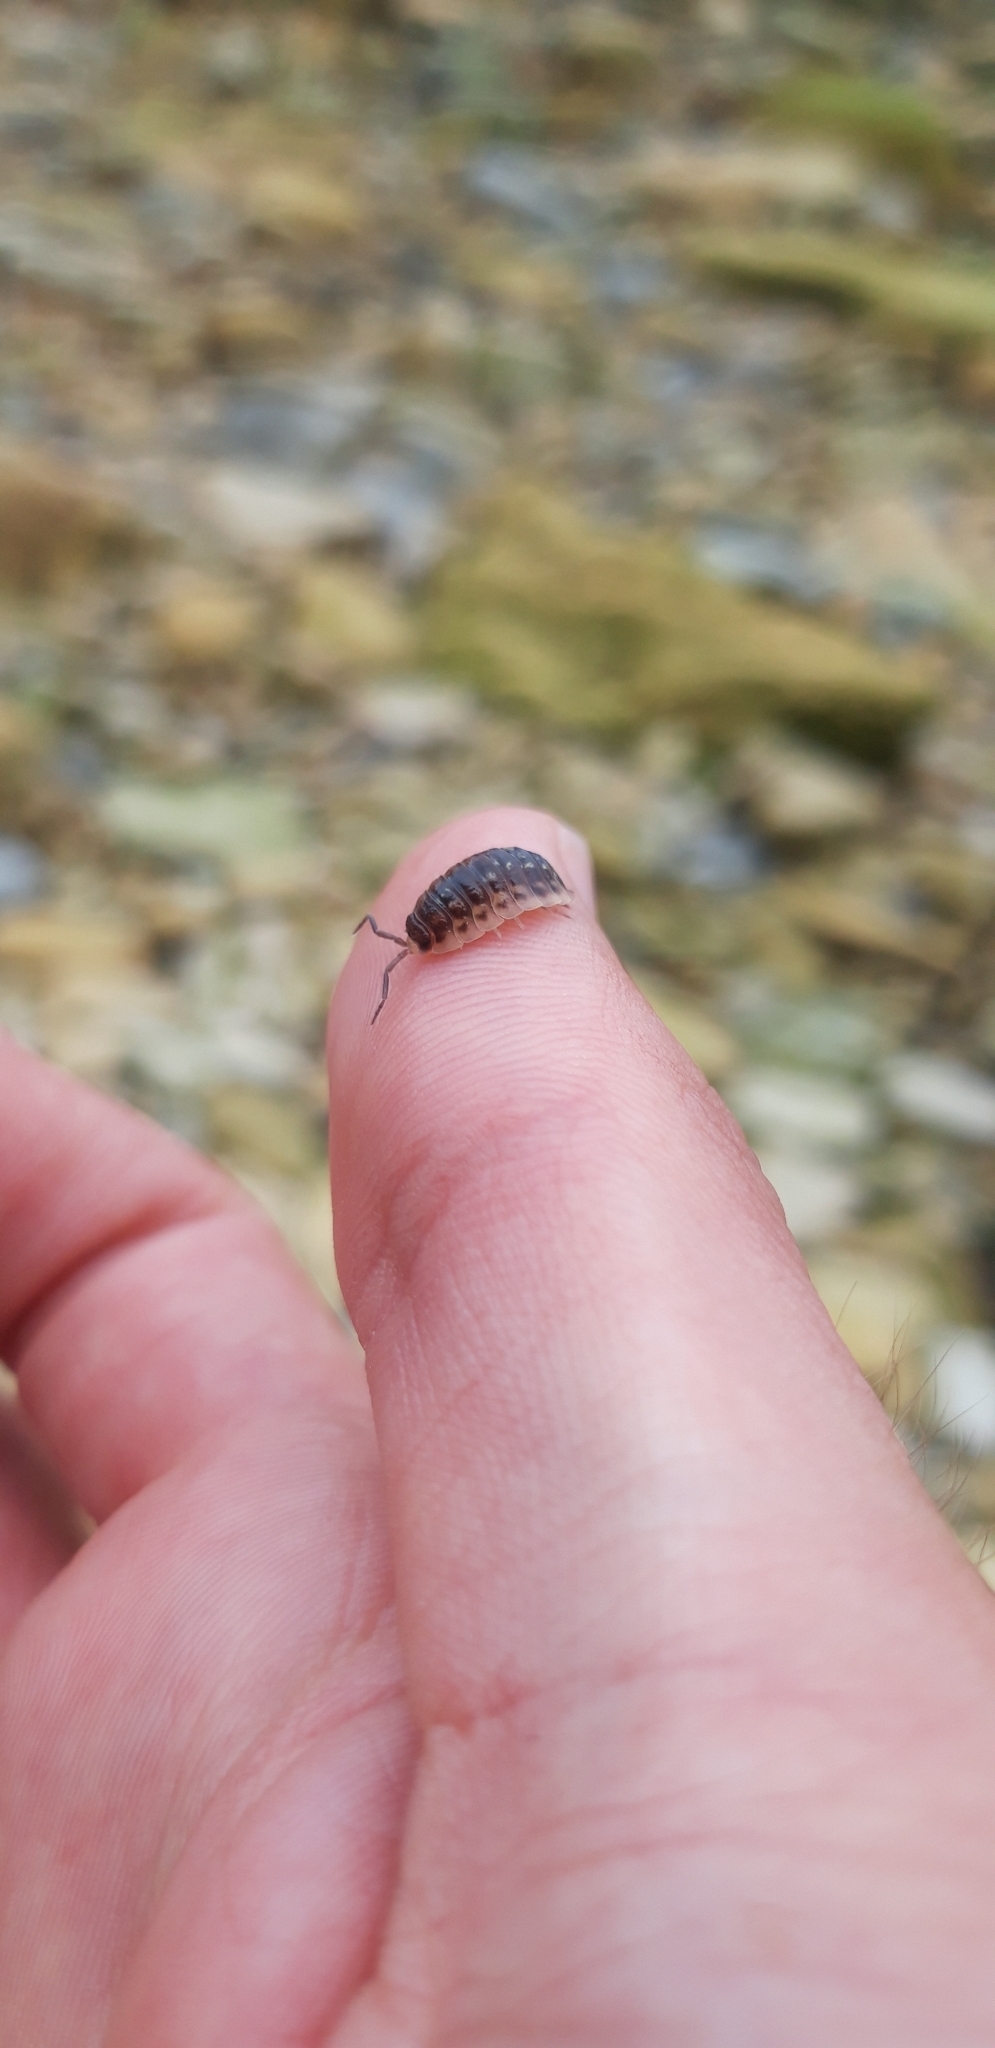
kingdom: Animalia
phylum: Arthropoda
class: Malacostraca
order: Isopoda
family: Oniscidae
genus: Oniscus
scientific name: Oniscus asellus
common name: Common shiny woodlouse
